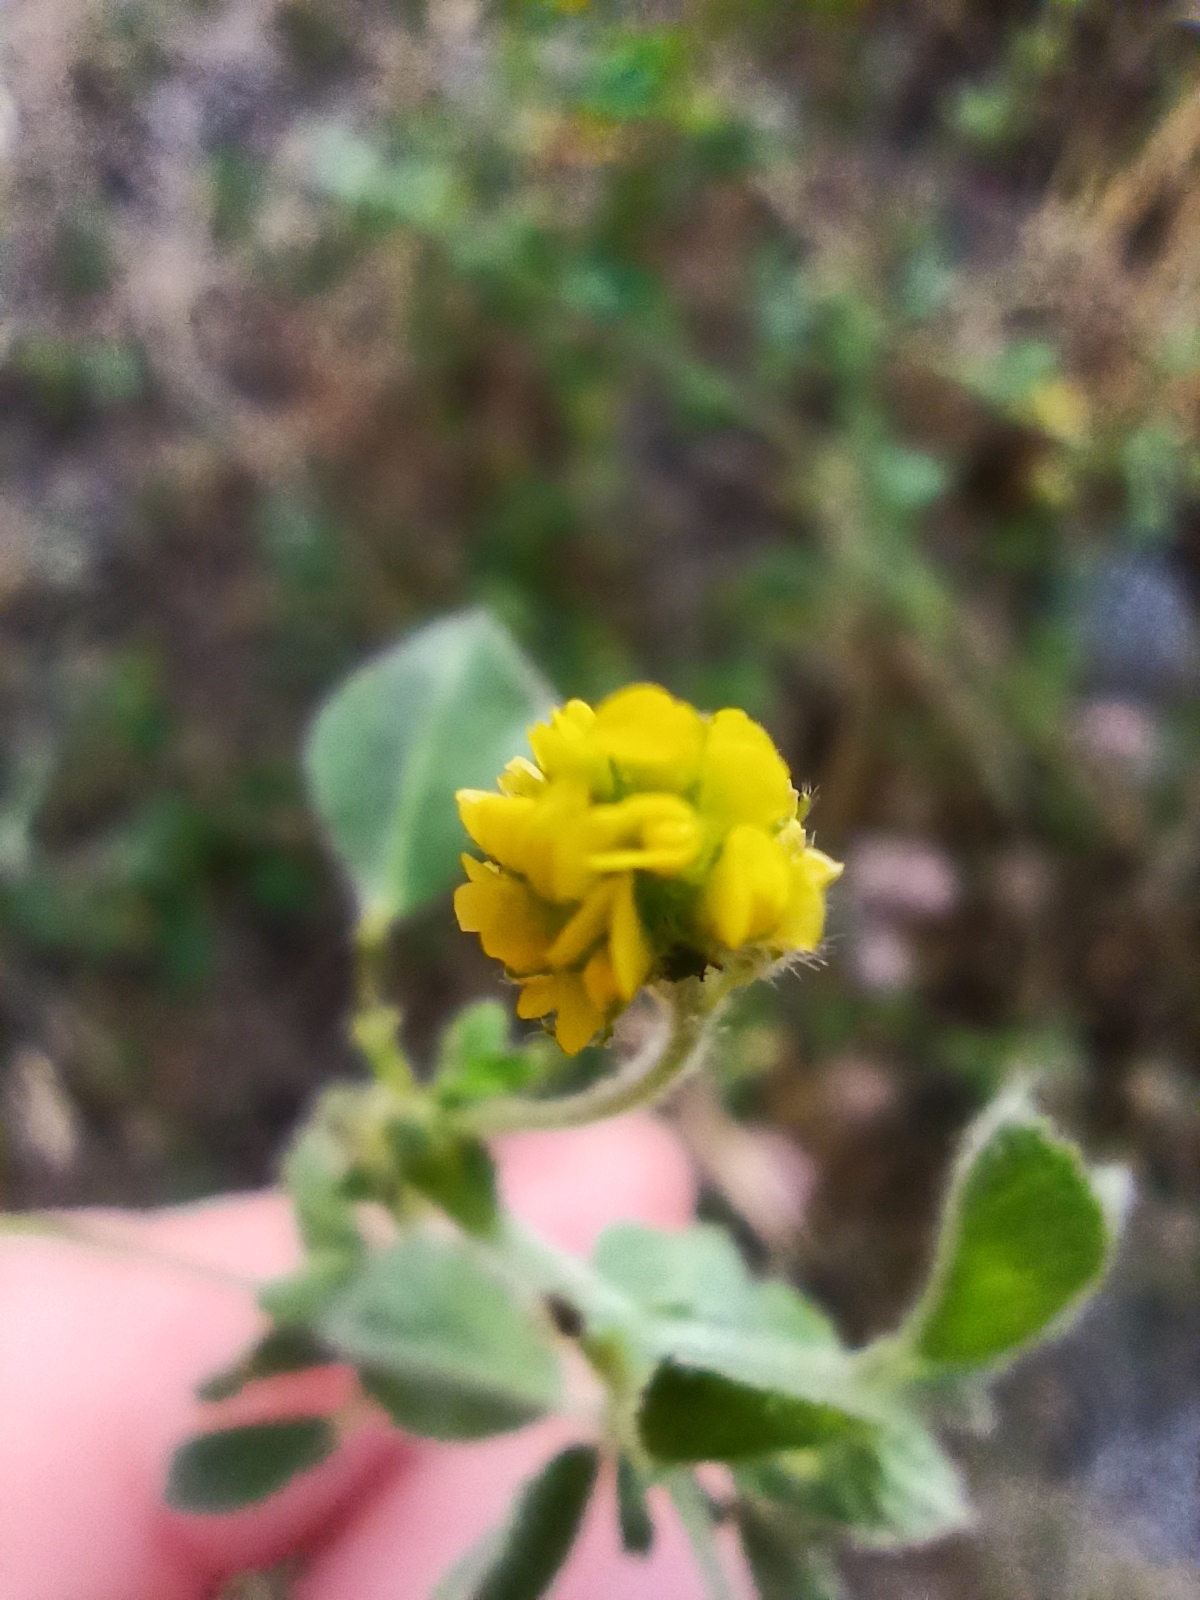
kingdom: Plantae
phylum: Tracheophyta
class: Magnoliopsida
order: Fabales
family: Fabaceae
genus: Medicago
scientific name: Medicago lupulina
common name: Black medick
